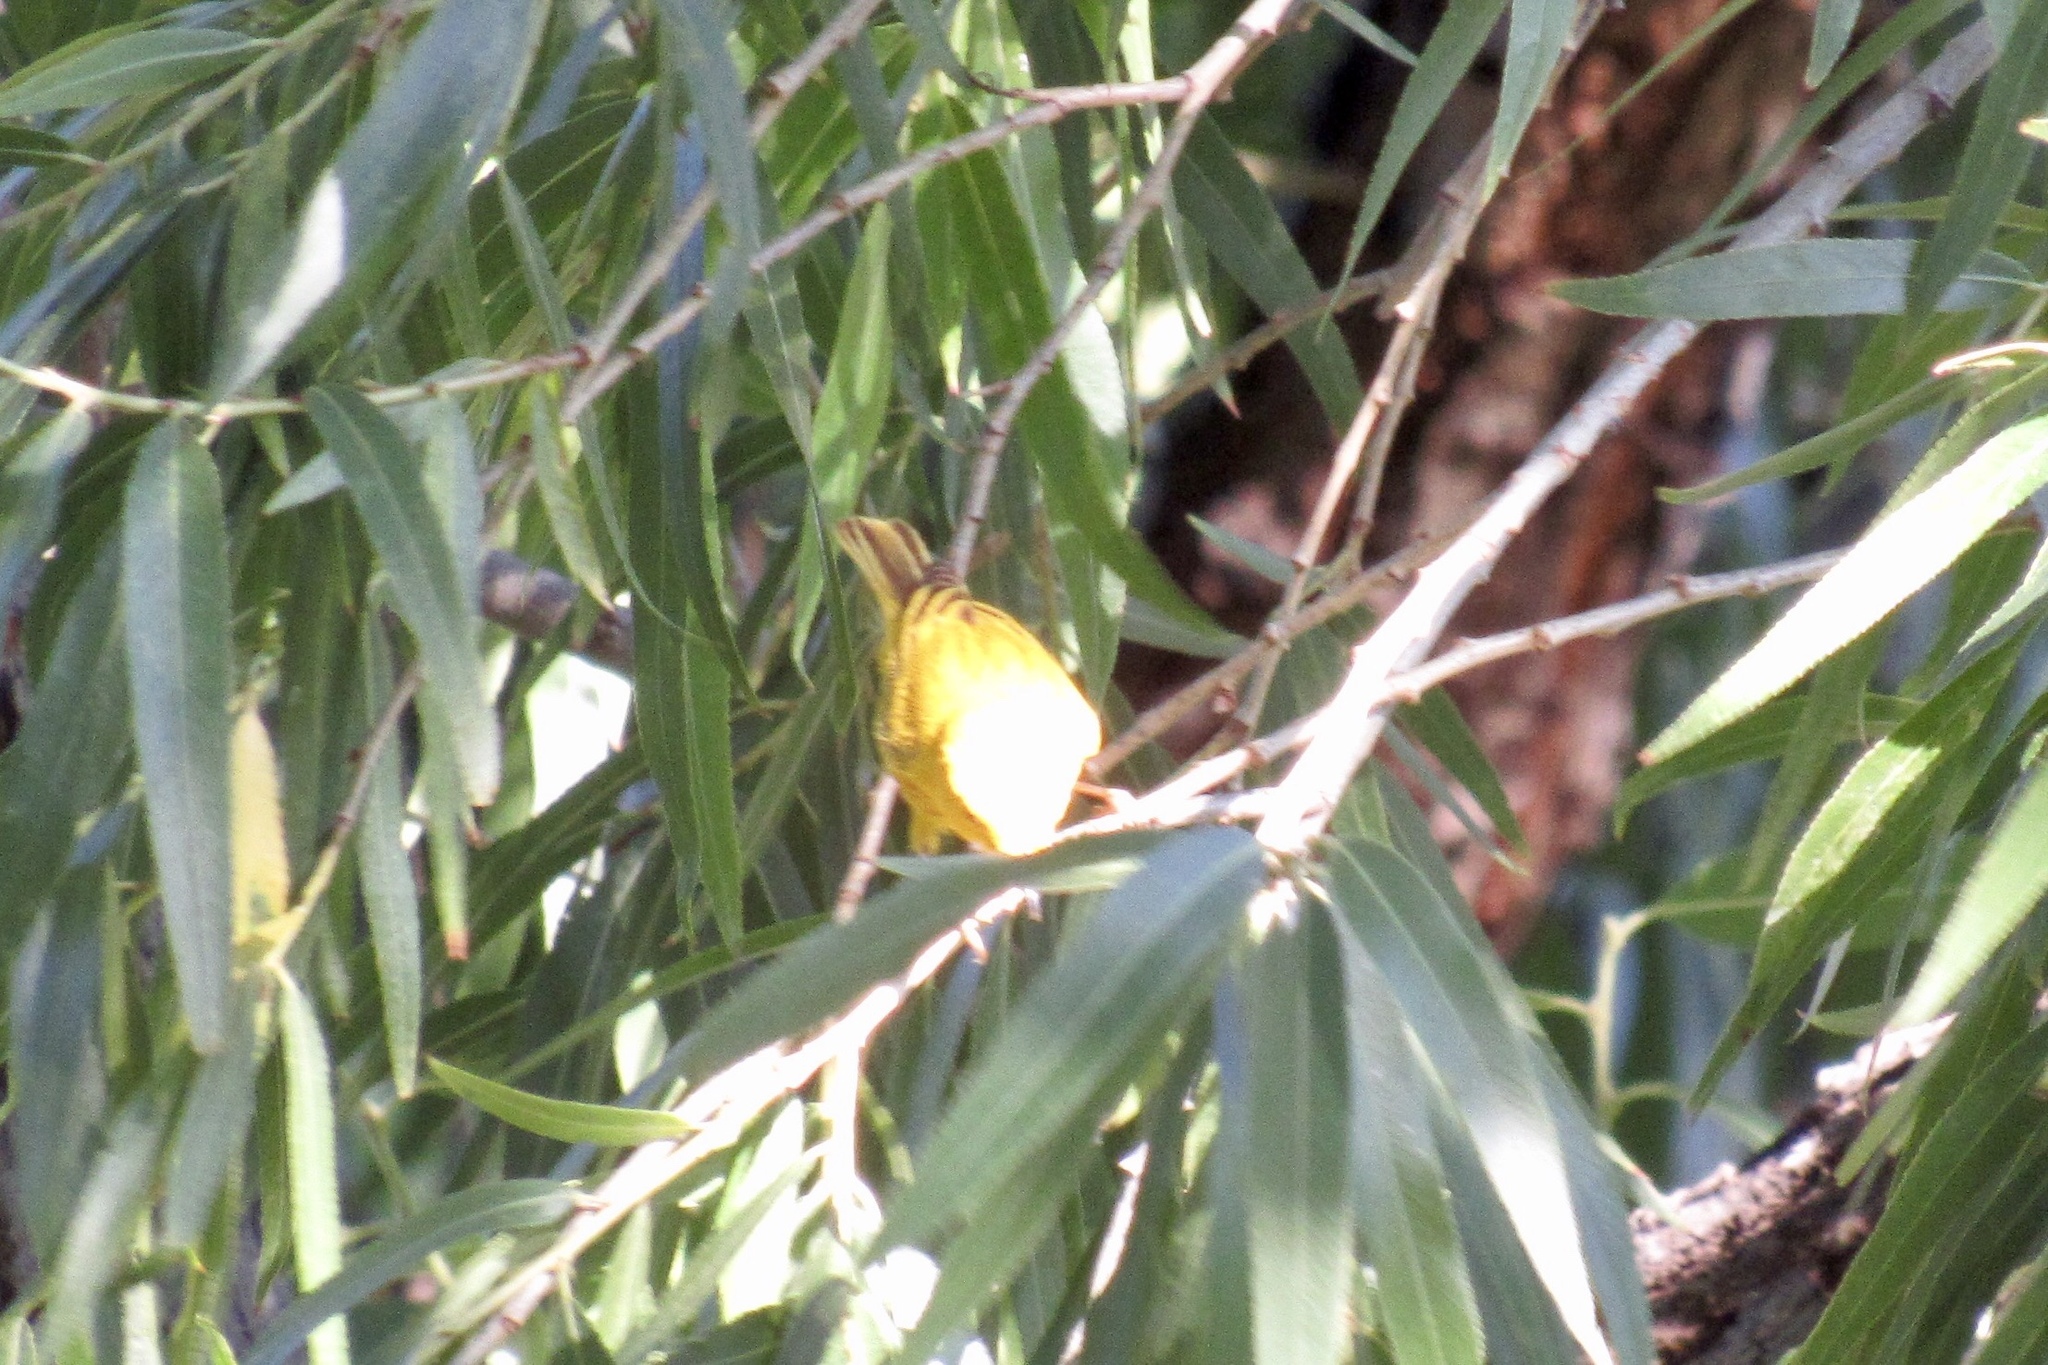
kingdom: Animalia
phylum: Chordata
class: Aves
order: Passeriformes
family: Parulidae
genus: Setophaga
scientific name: Setophaga petechia
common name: Yellow warbler
